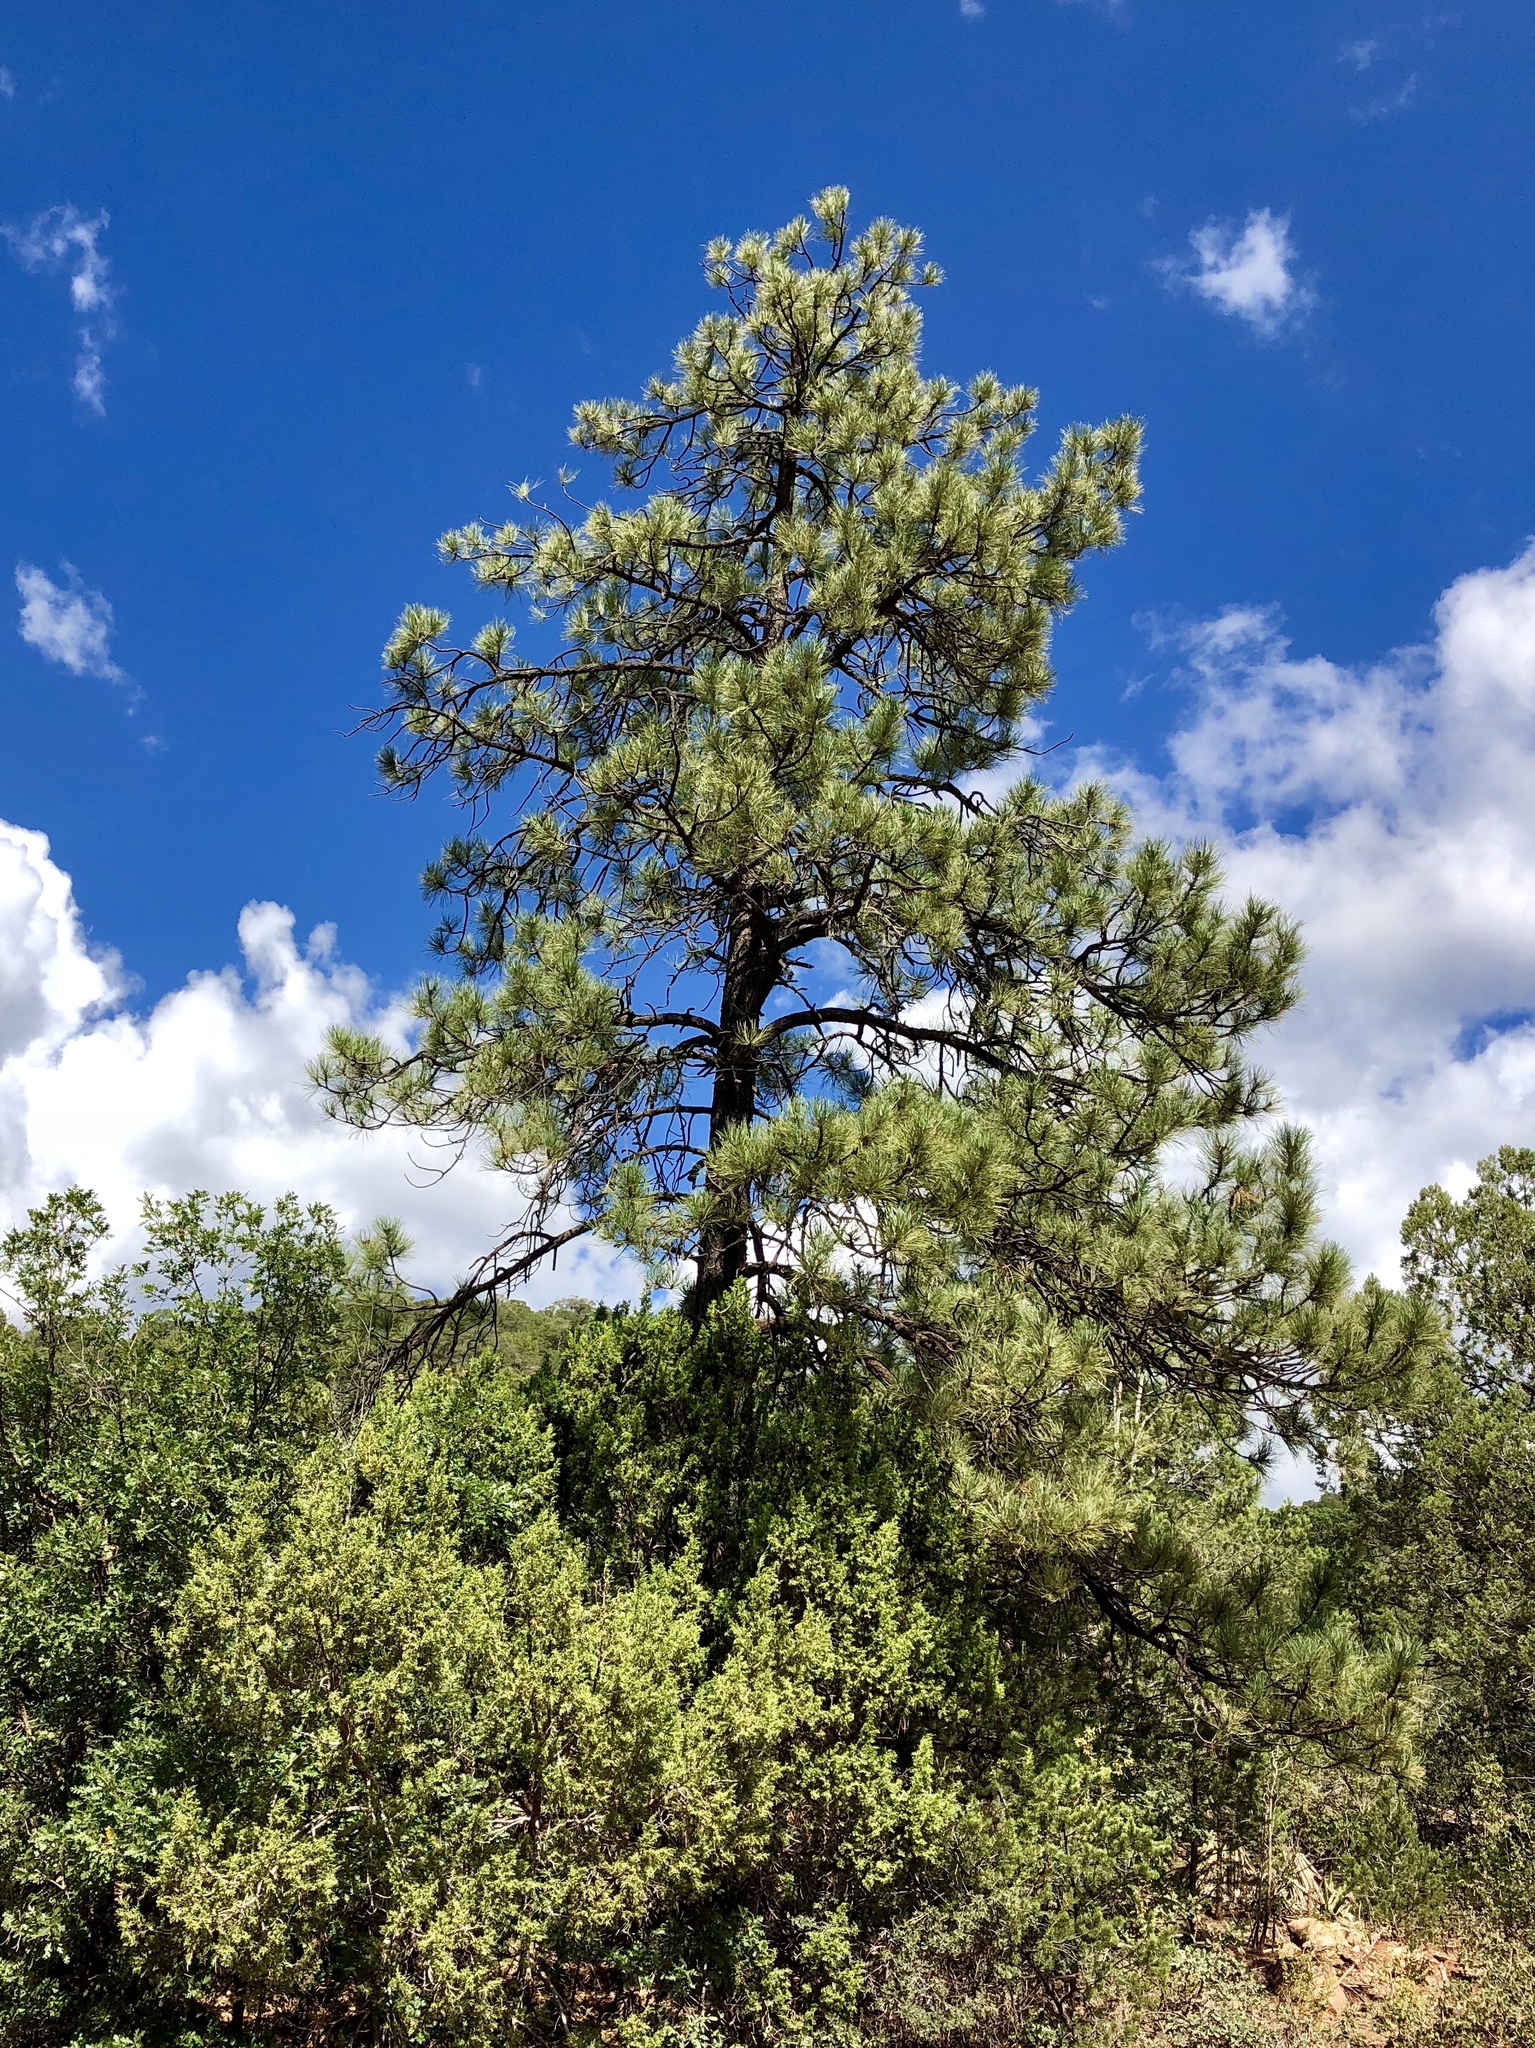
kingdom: Plantae
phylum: Tracheophyta
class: Pinopsida
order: Pinales
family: Pinaceae
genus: Pinus
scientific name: Pinus ponderosa
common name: Western yellow-pine
